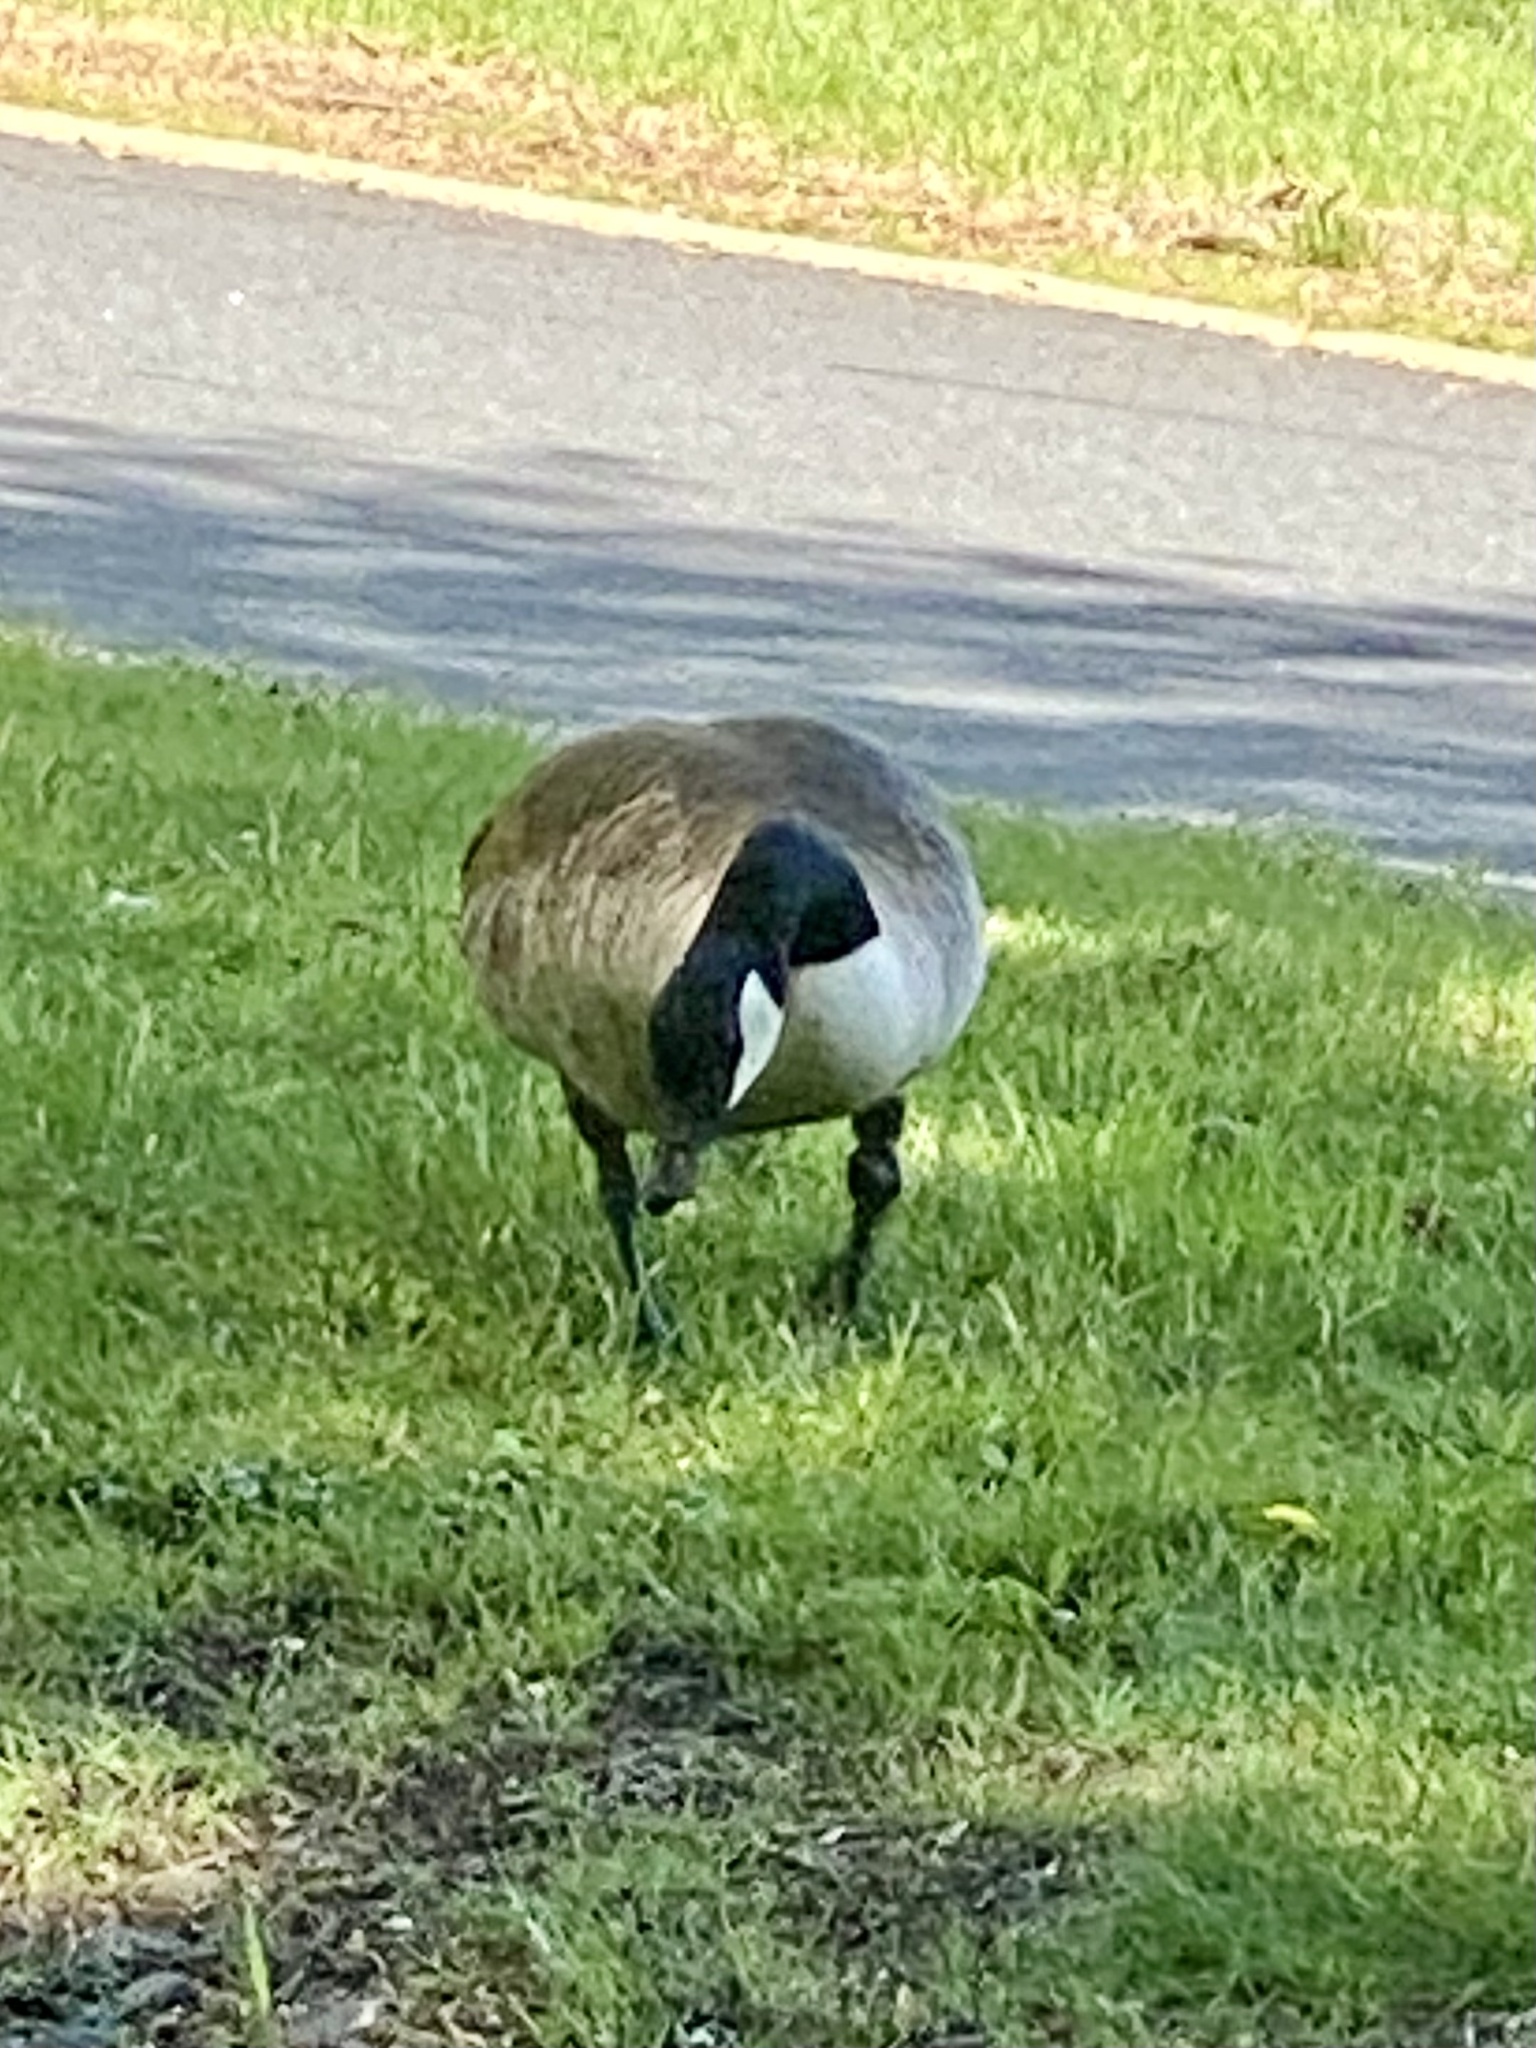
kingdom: Animalia
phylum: Chordata
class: Aves
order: Anseriformes
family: Anatidae
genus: Branta
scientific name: Branta canadensis
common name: Canada goose
